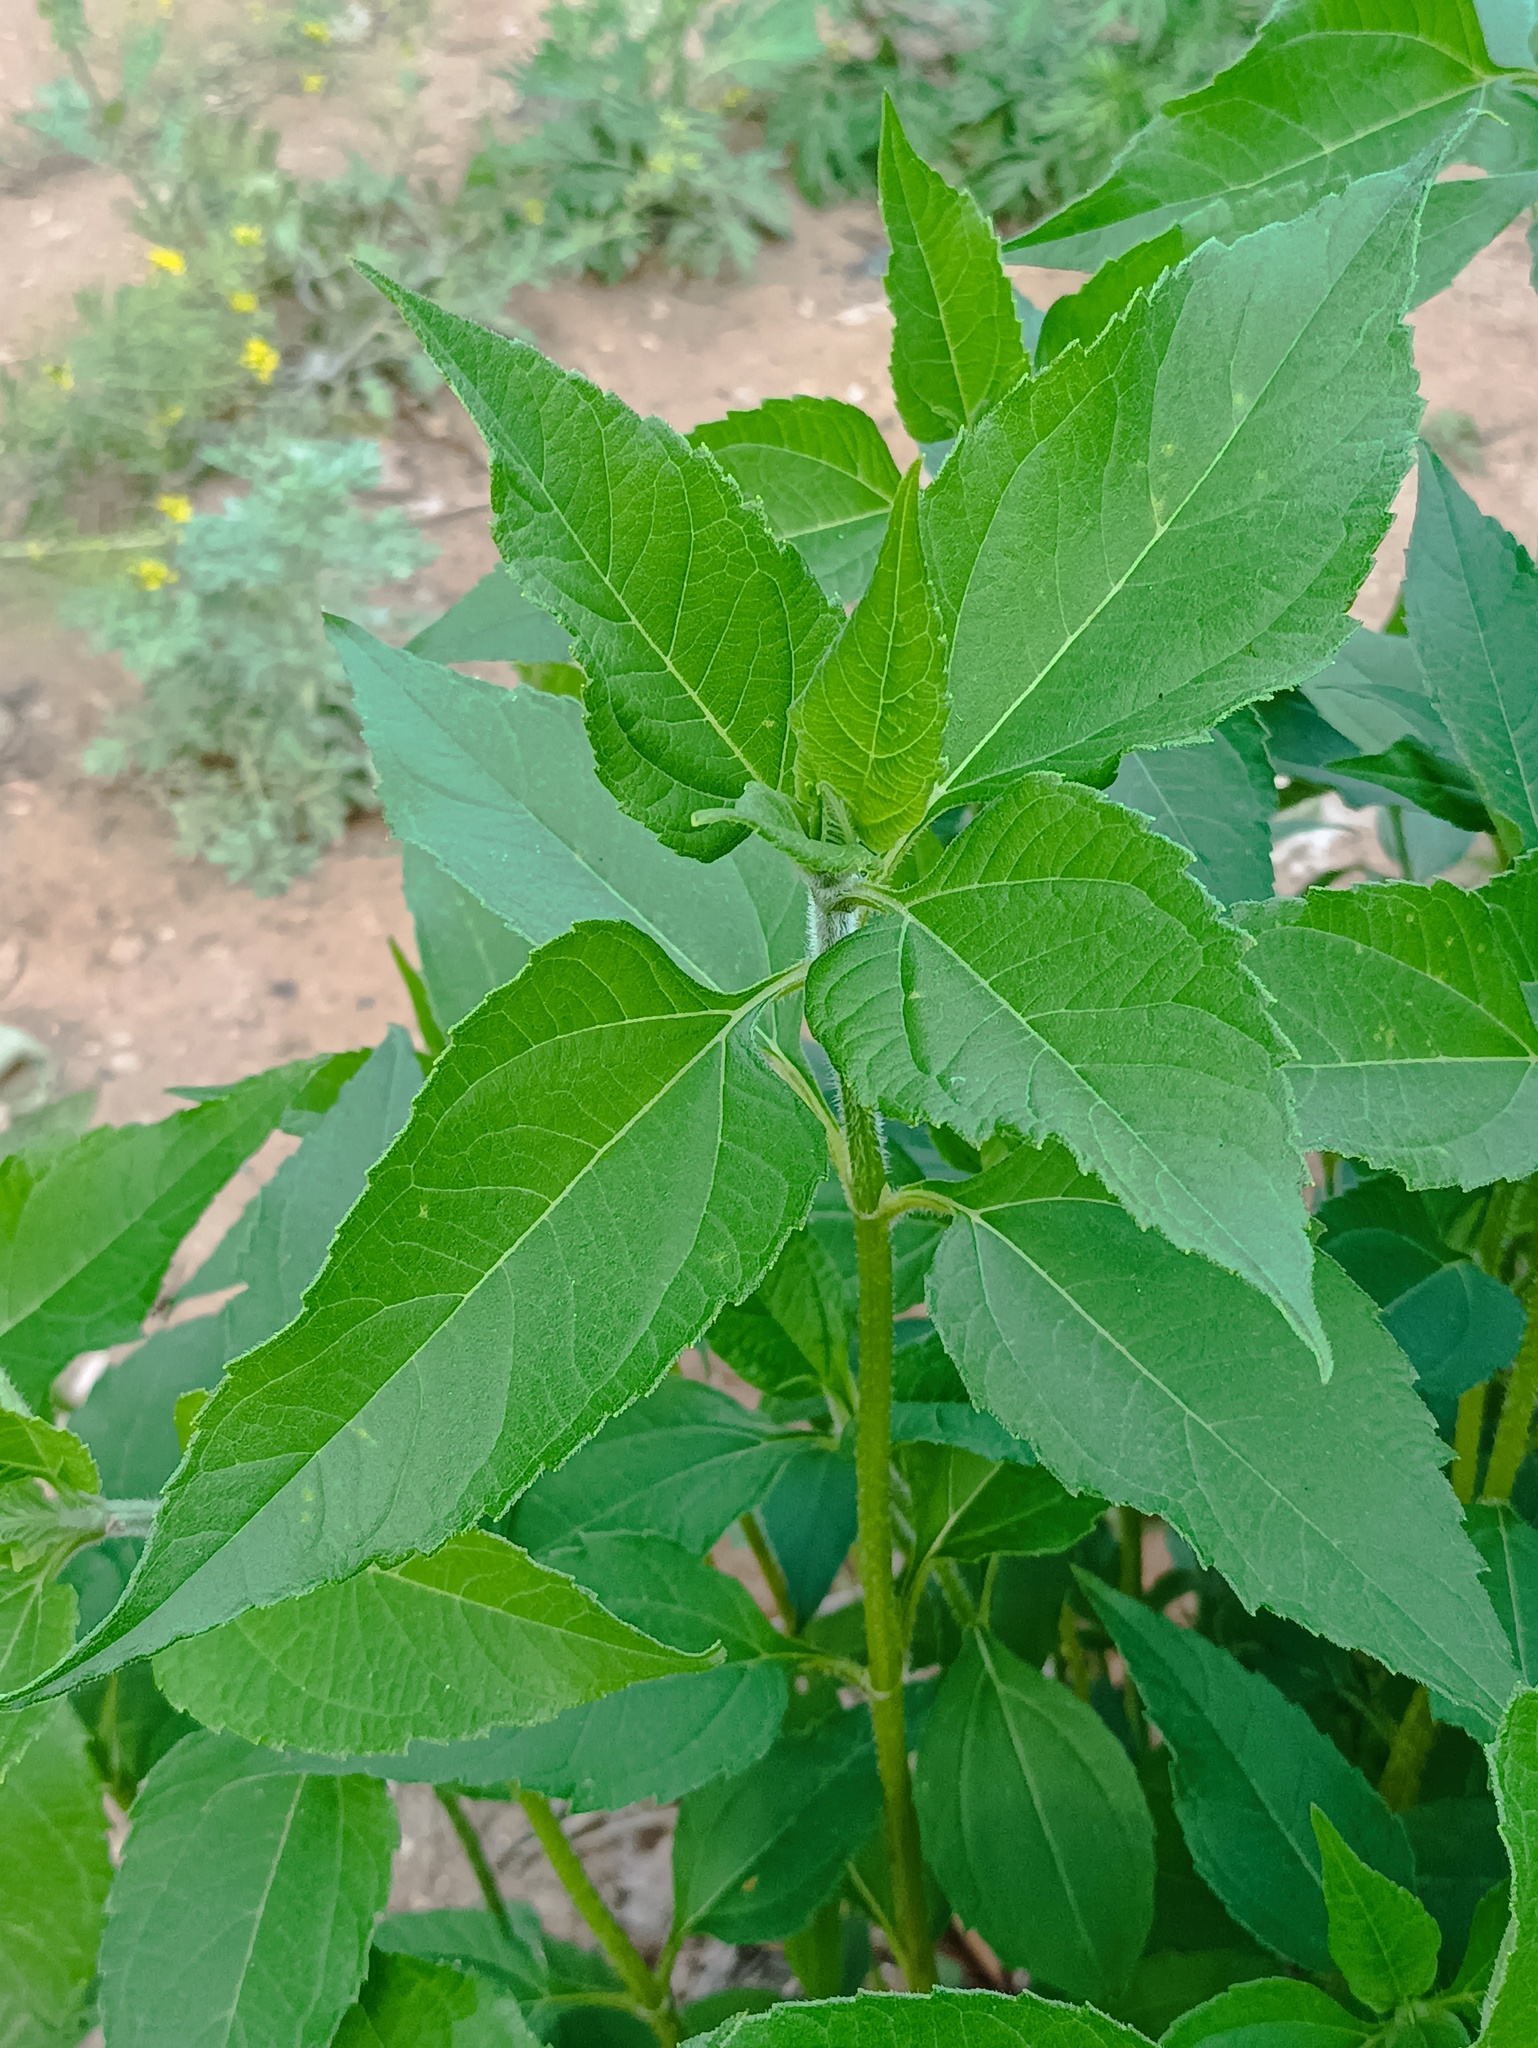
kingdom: Plantae
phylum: Tracheophyta
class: Magnoliopsida
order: Asterales
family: Asteraceae
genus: Helianthus
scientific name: Helianthus tuberosus
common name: Jerusalem artichoke
